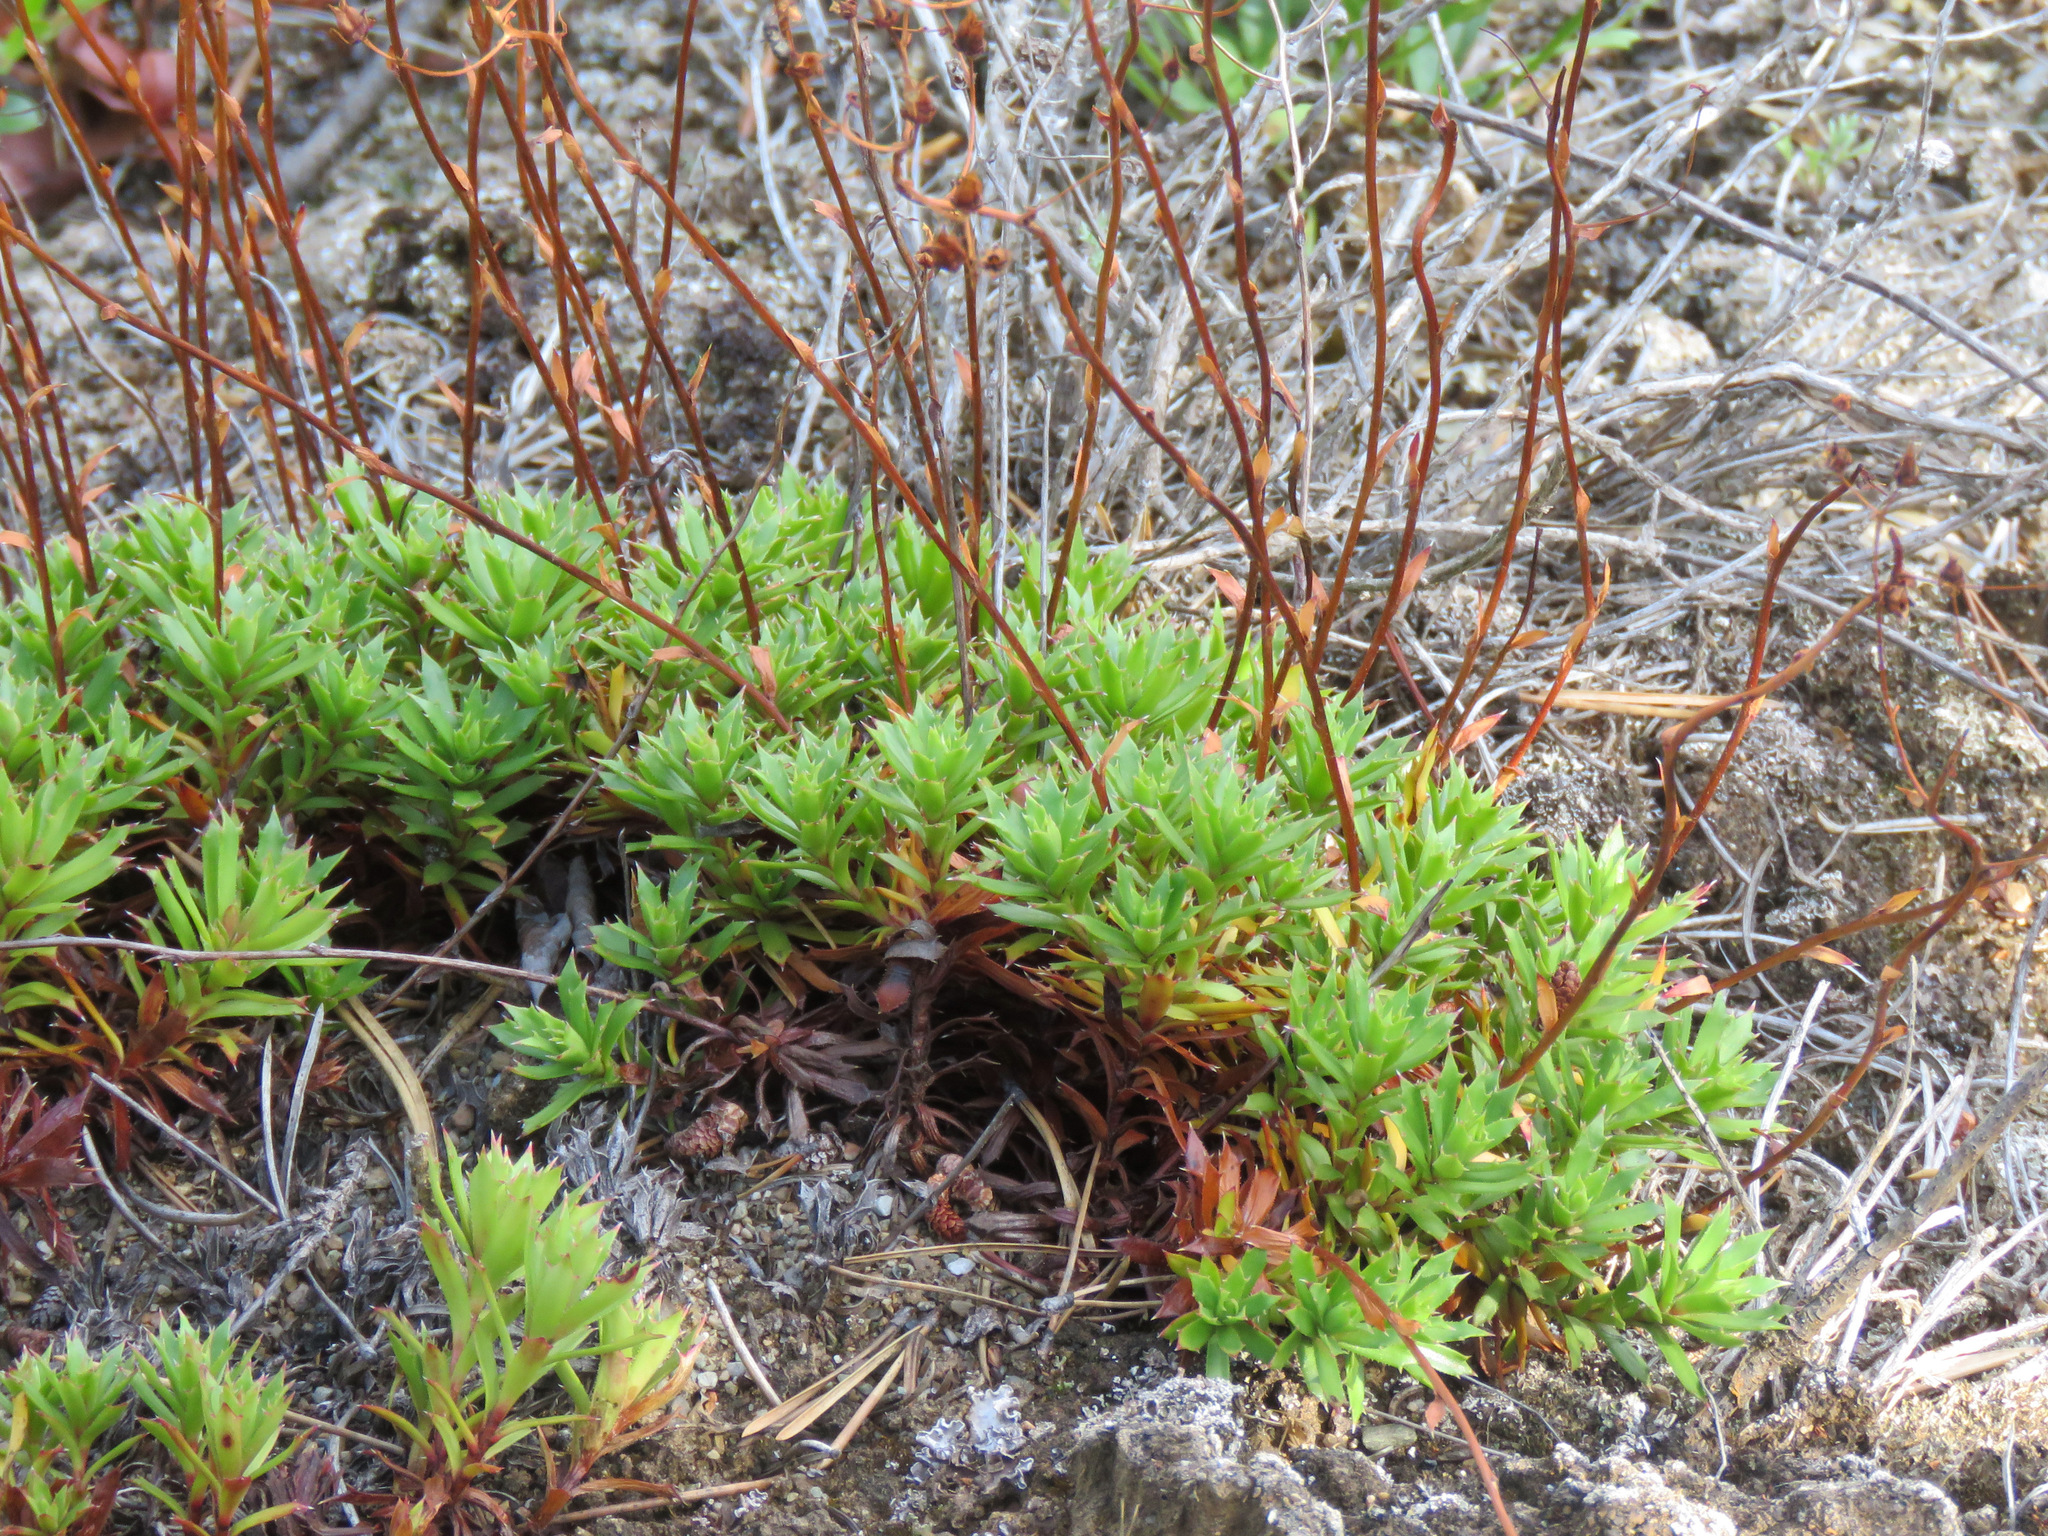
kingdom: Plantae
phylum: Tracheophyta
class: Magnoliopsida
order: Saxifragales
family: Saxifragaceae
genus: Saxifraga
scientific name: Saxifraga tricuspidata
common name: Prickly saxifrage
